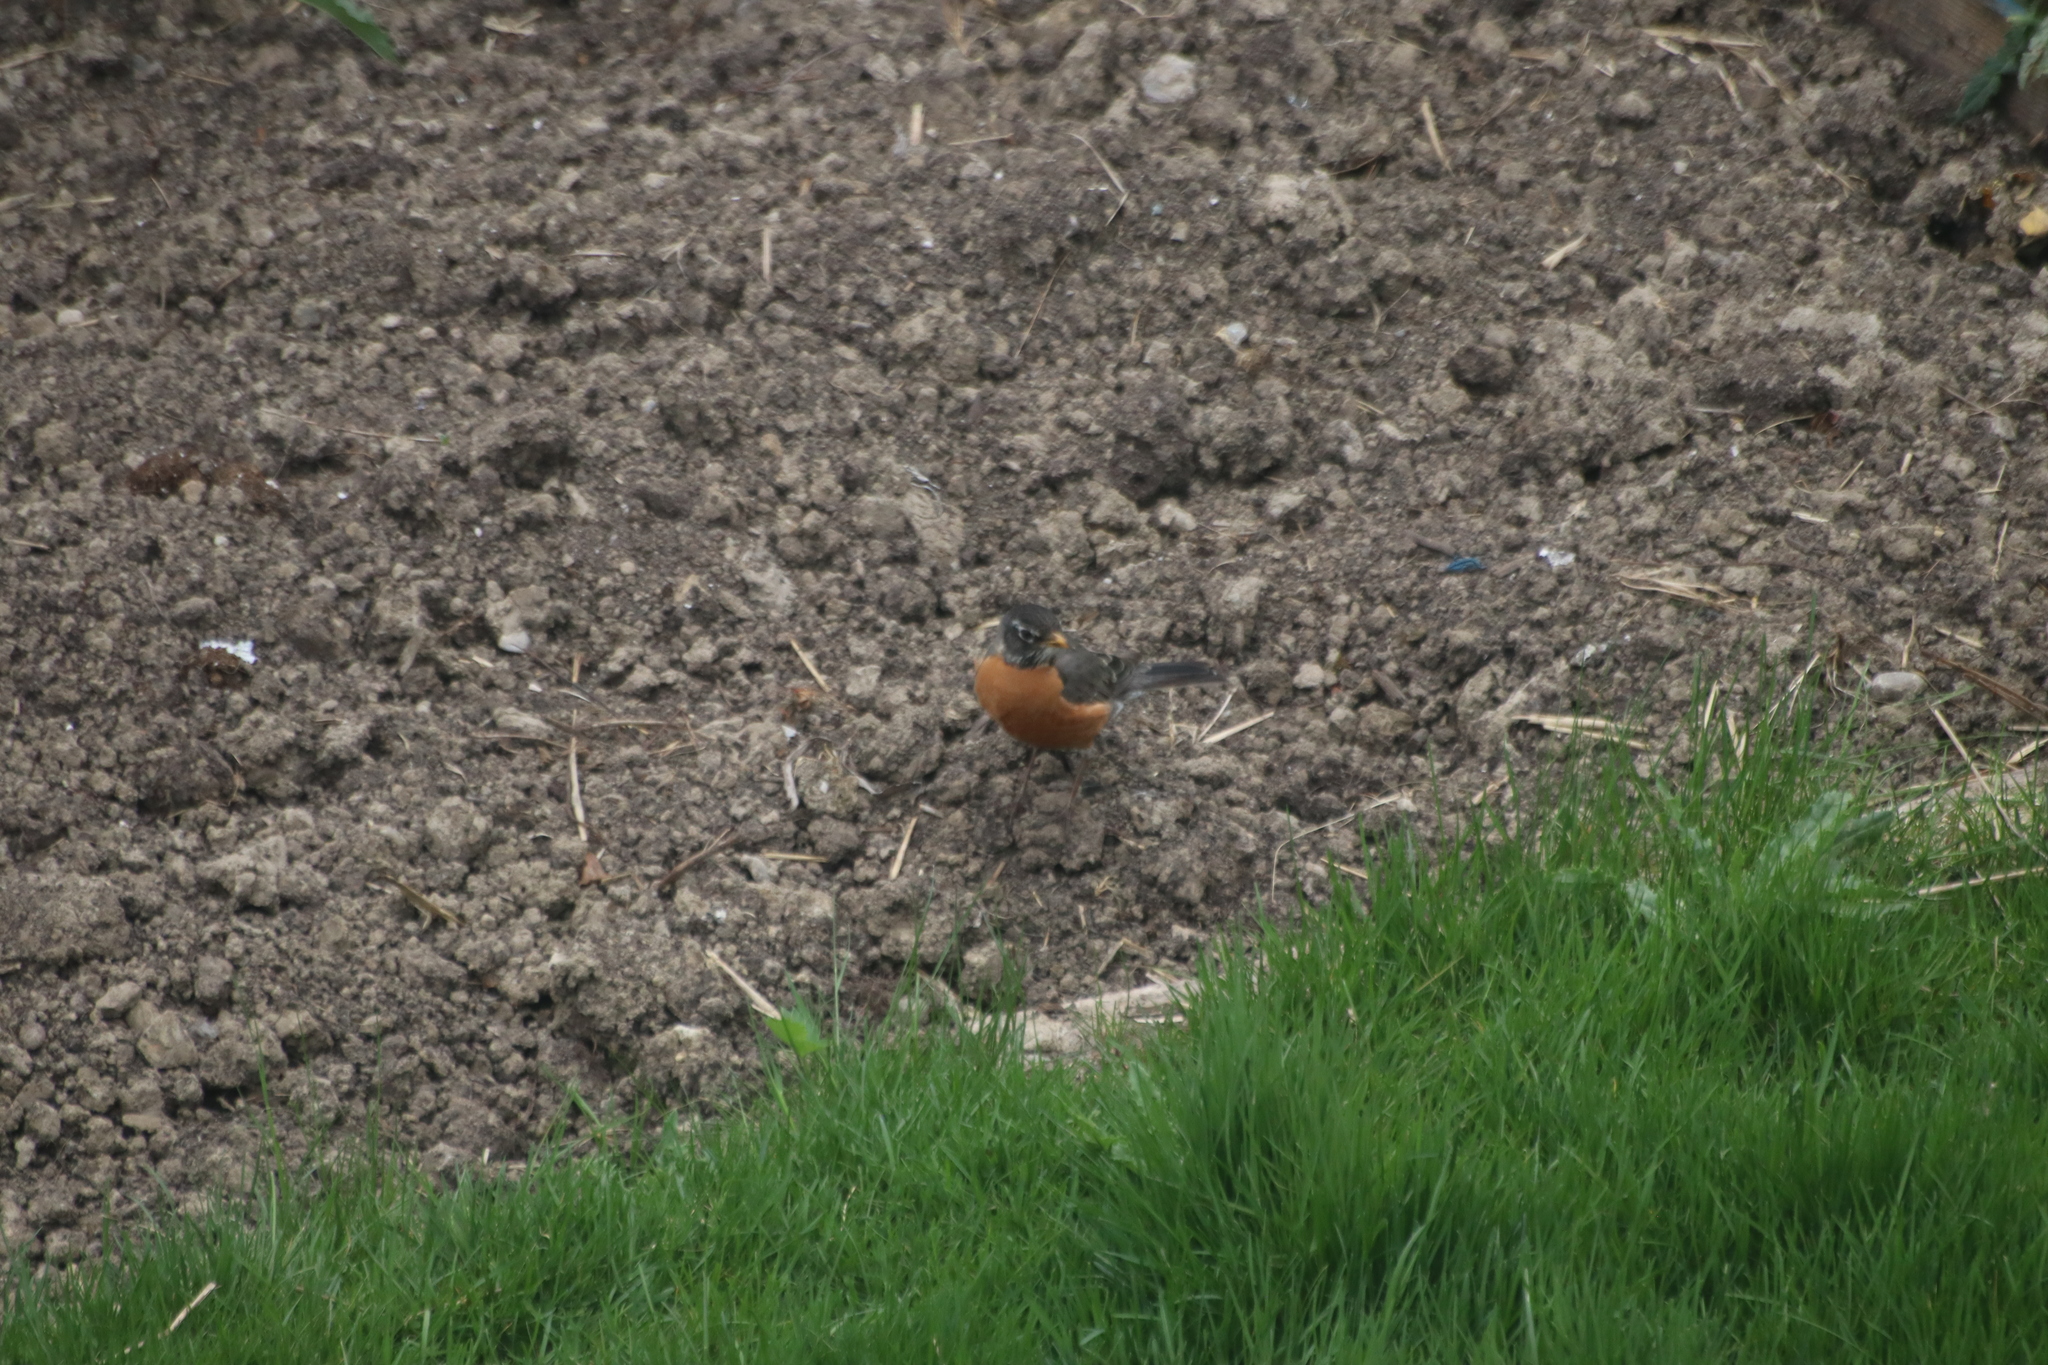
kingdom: Animalia
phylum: Chordata
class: Aves
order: Passeriformes
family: Turdidae
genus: Turdus
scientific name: Turdus migratorius
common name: American robin
